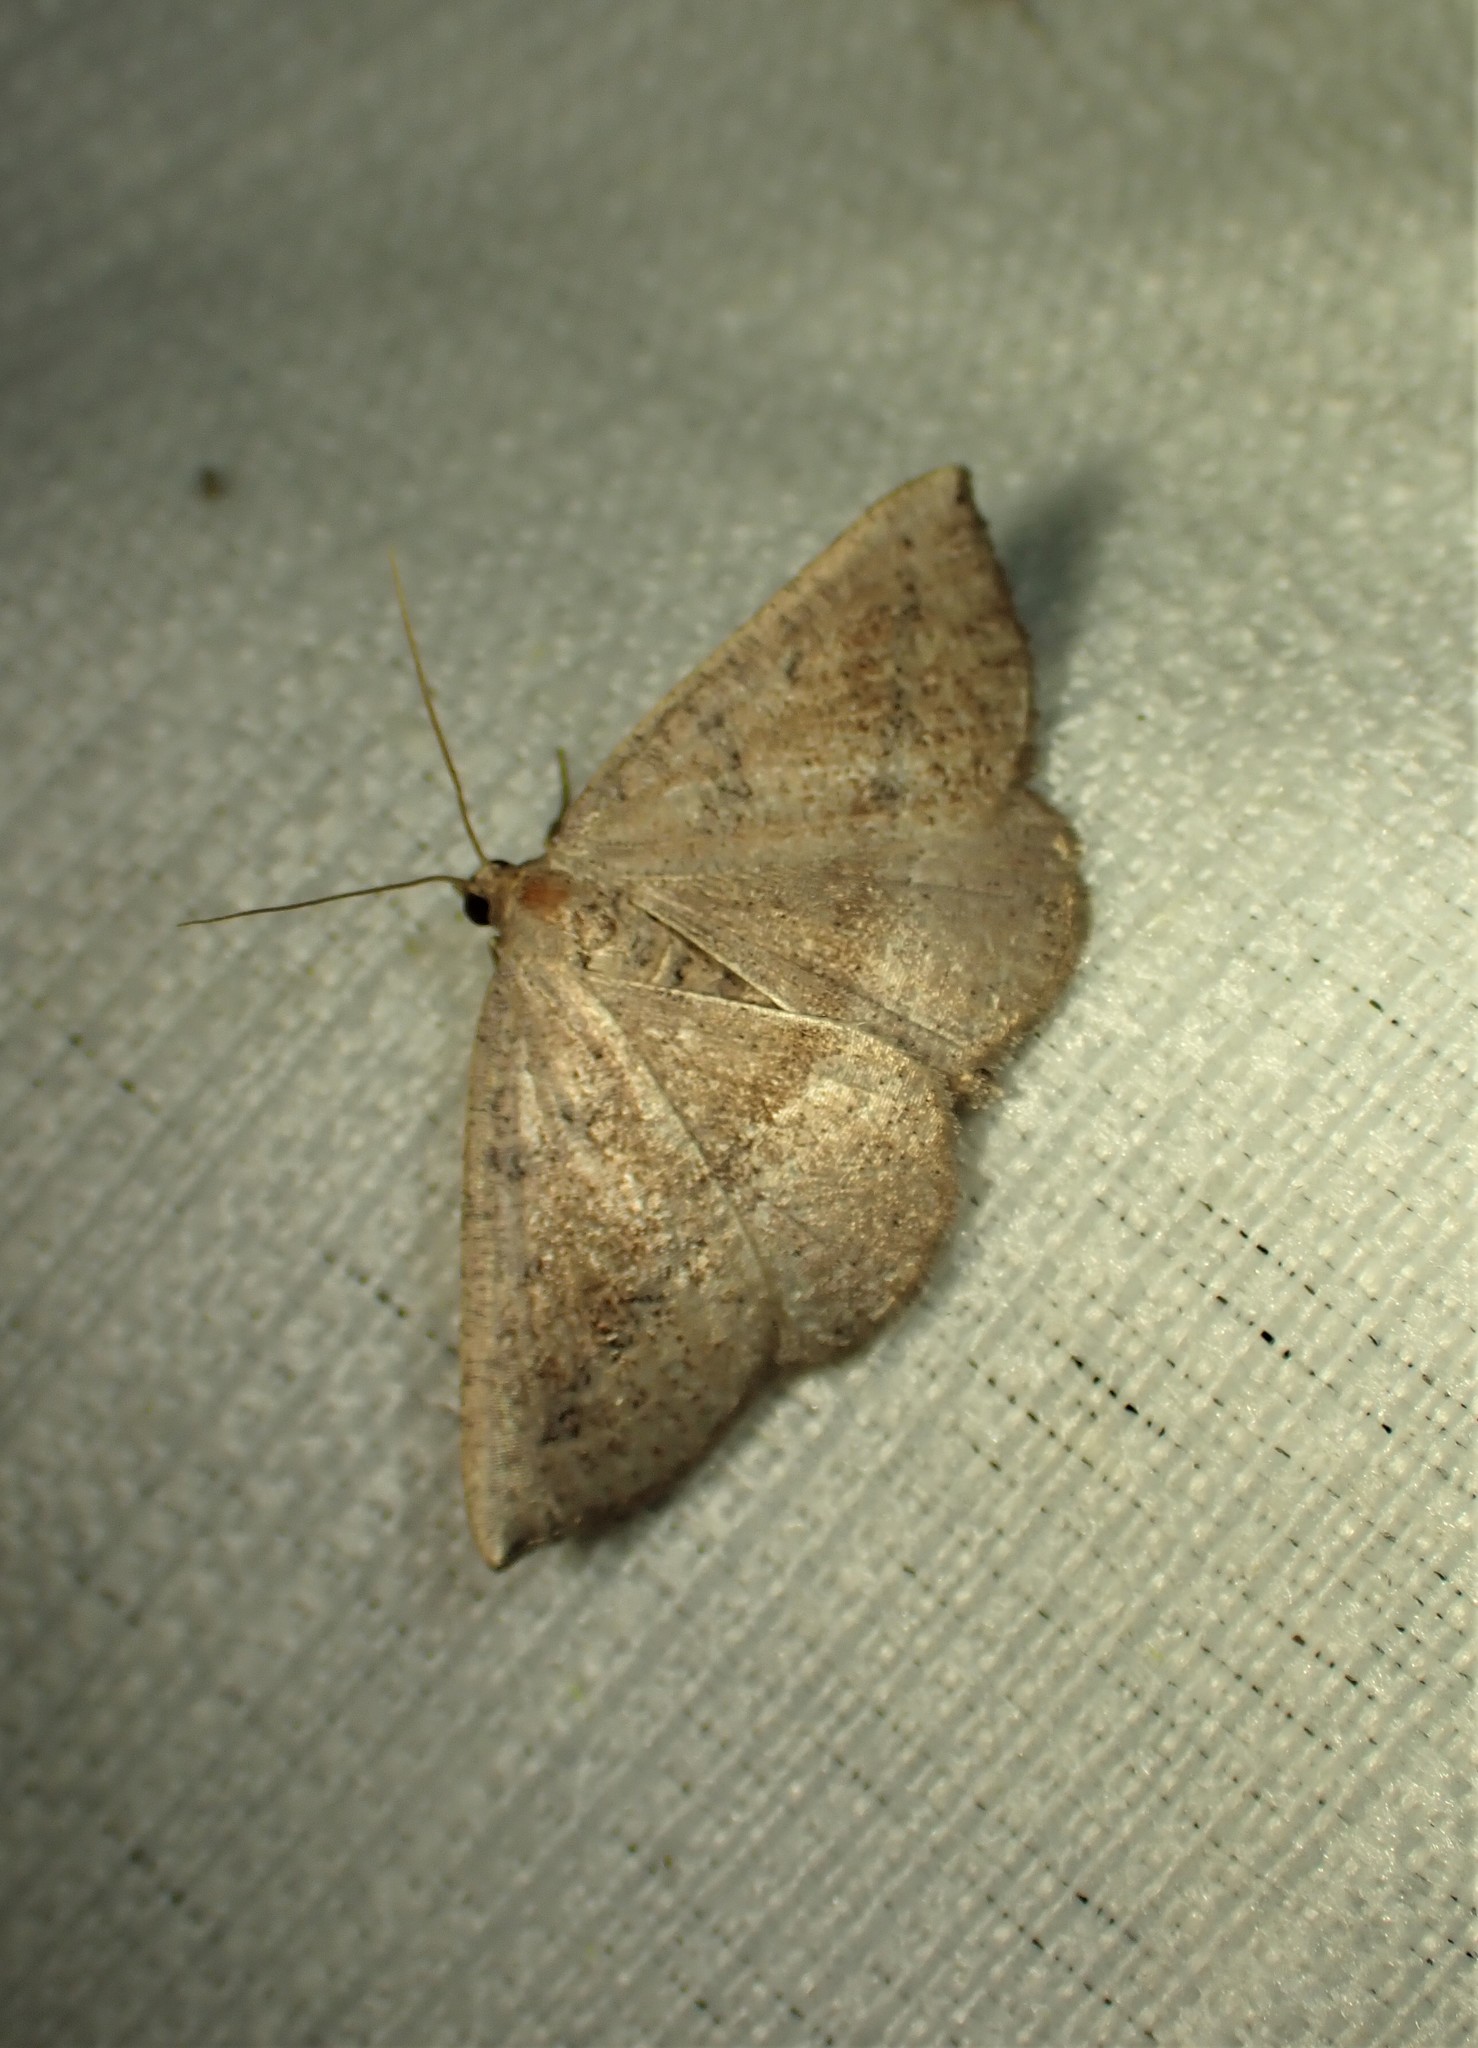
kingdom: Animalia
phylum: Arthropoda
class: Insecta
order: Lepidoptera
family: Geometridae
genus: Tacparia
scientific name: Tacparia atropunctata
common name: Northern pale alder
